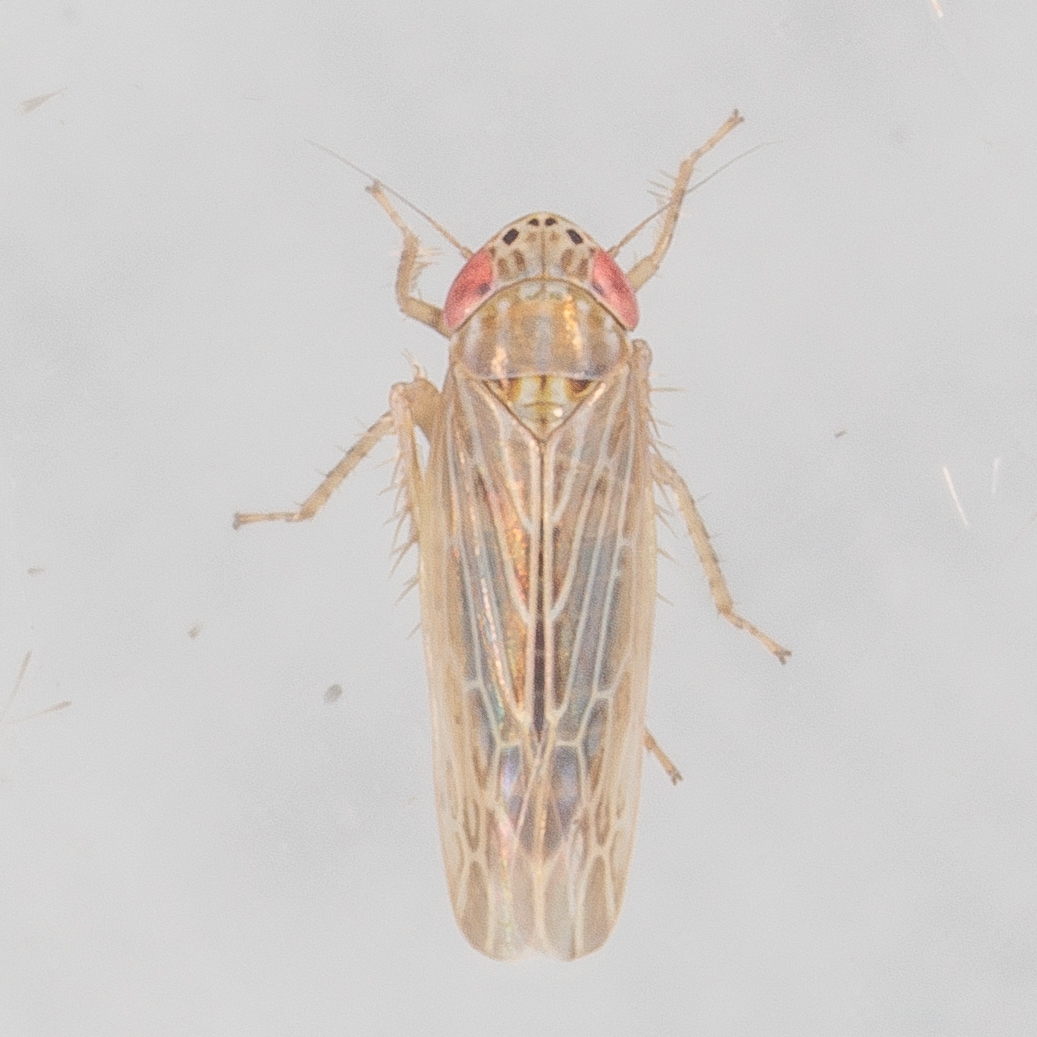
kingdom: Animalia
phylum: Arthropoda
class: Insecta
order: Hemiptera
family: Cicadellidae
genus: Graminella
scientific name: Graminella sonora
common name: Lesser lawn leafhopper
